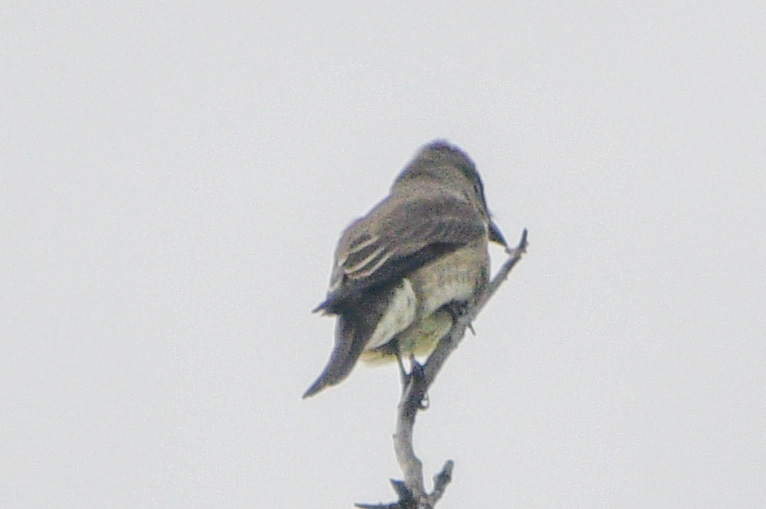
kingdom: Animalia
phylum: Chordata
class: Aves
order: Passeriformes
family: Tyrannidae
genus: Contopus
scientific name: Contopus sordidulus
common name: Western wood-pewee
